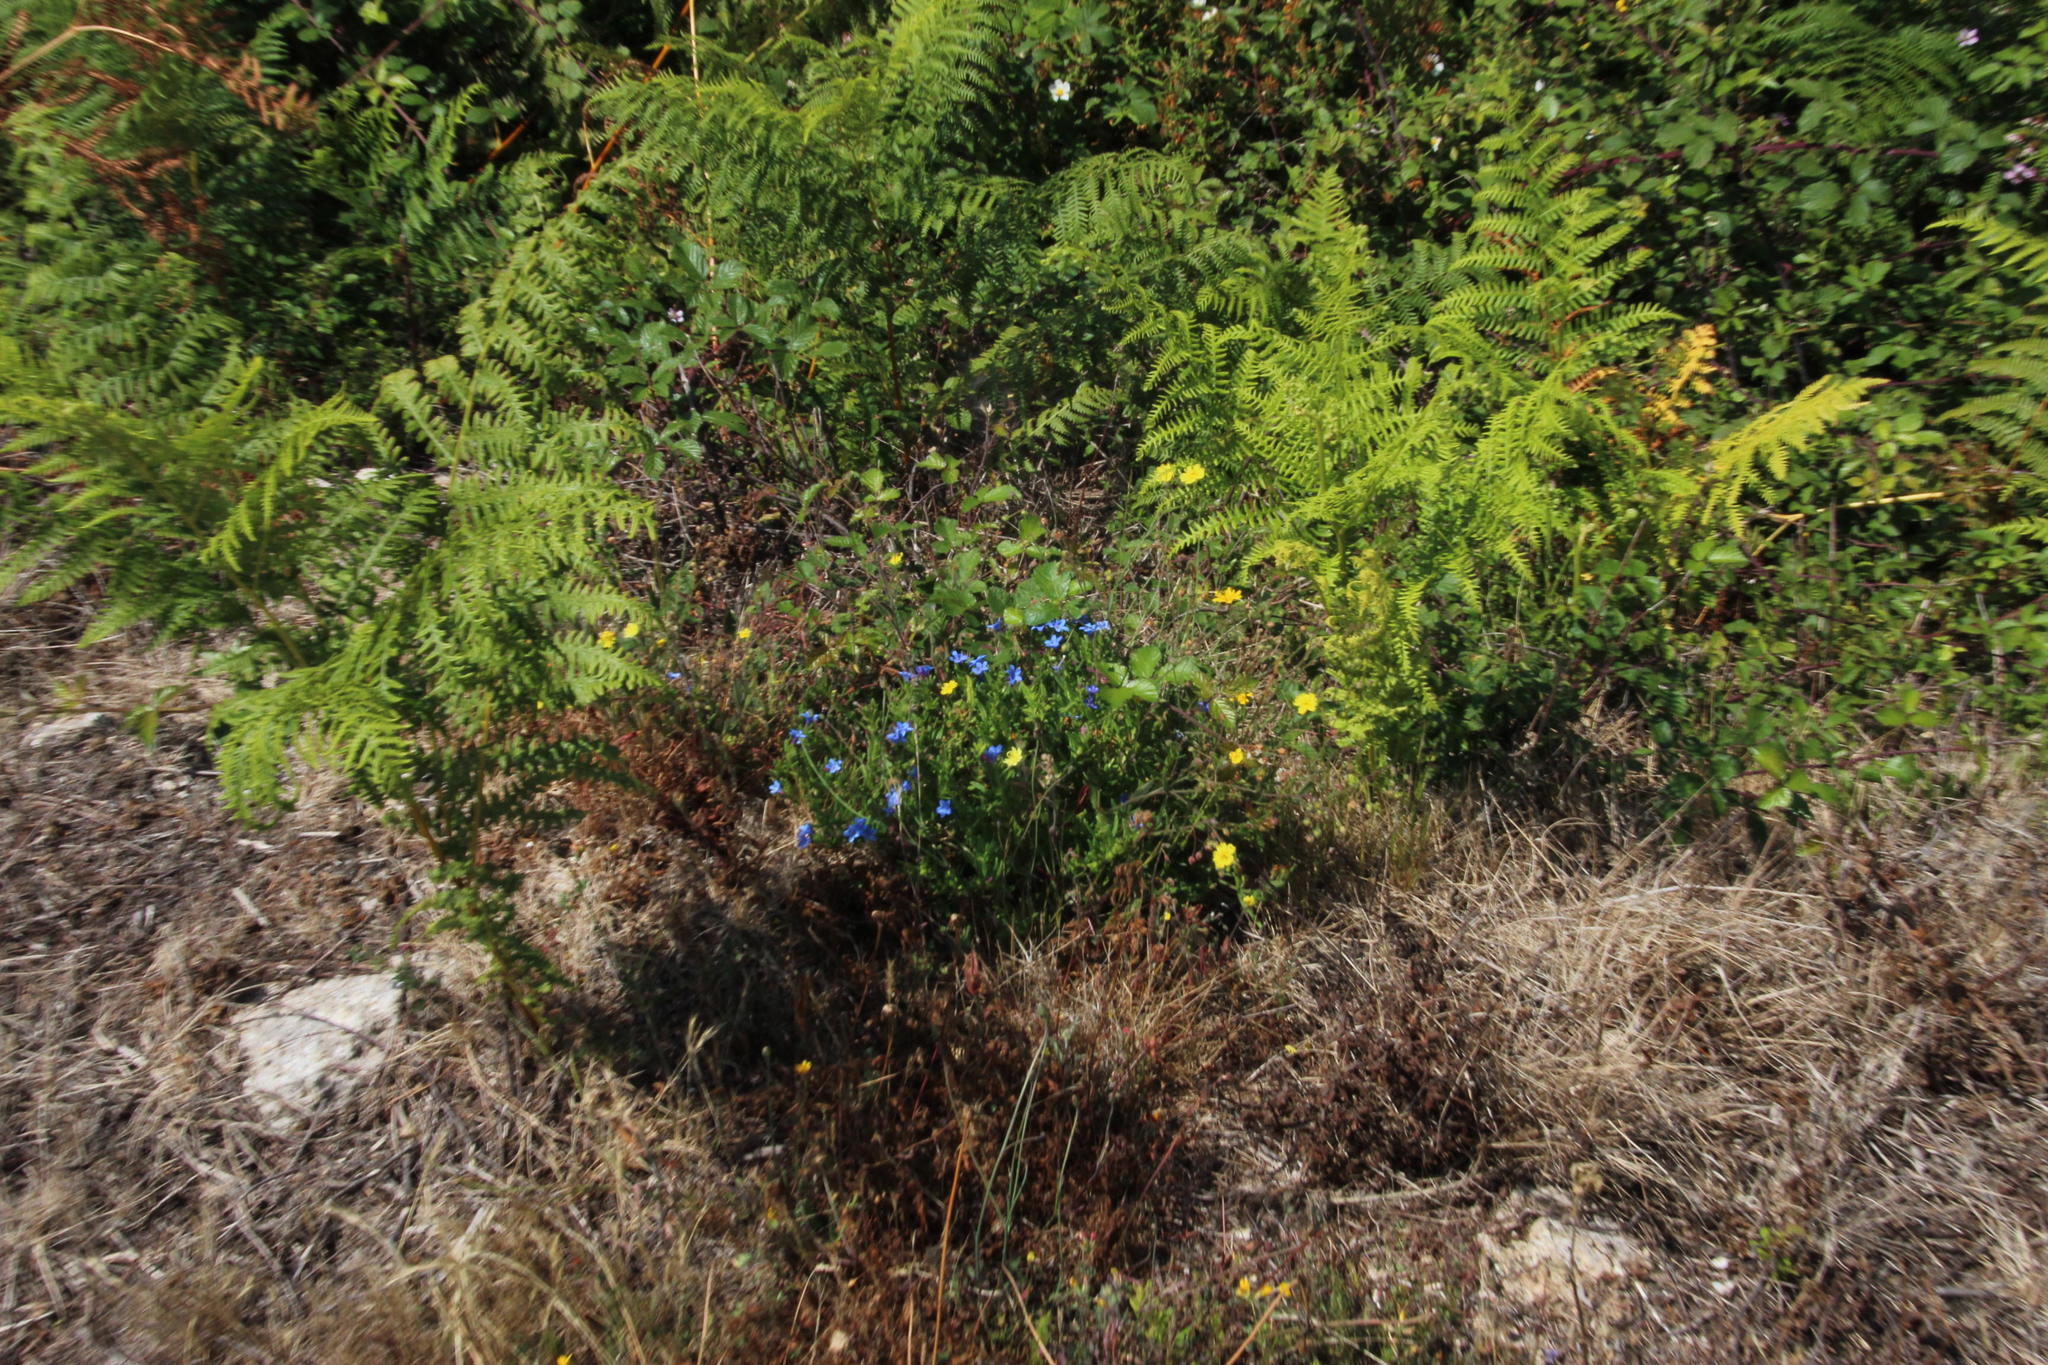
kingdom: Plantae
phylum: Tracheophyta
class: Polypodiopsida
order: Polypodiales
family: Dennstaedtiaceae
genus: Pteridium
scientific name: Pteridium aquilinum
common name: Bracken
